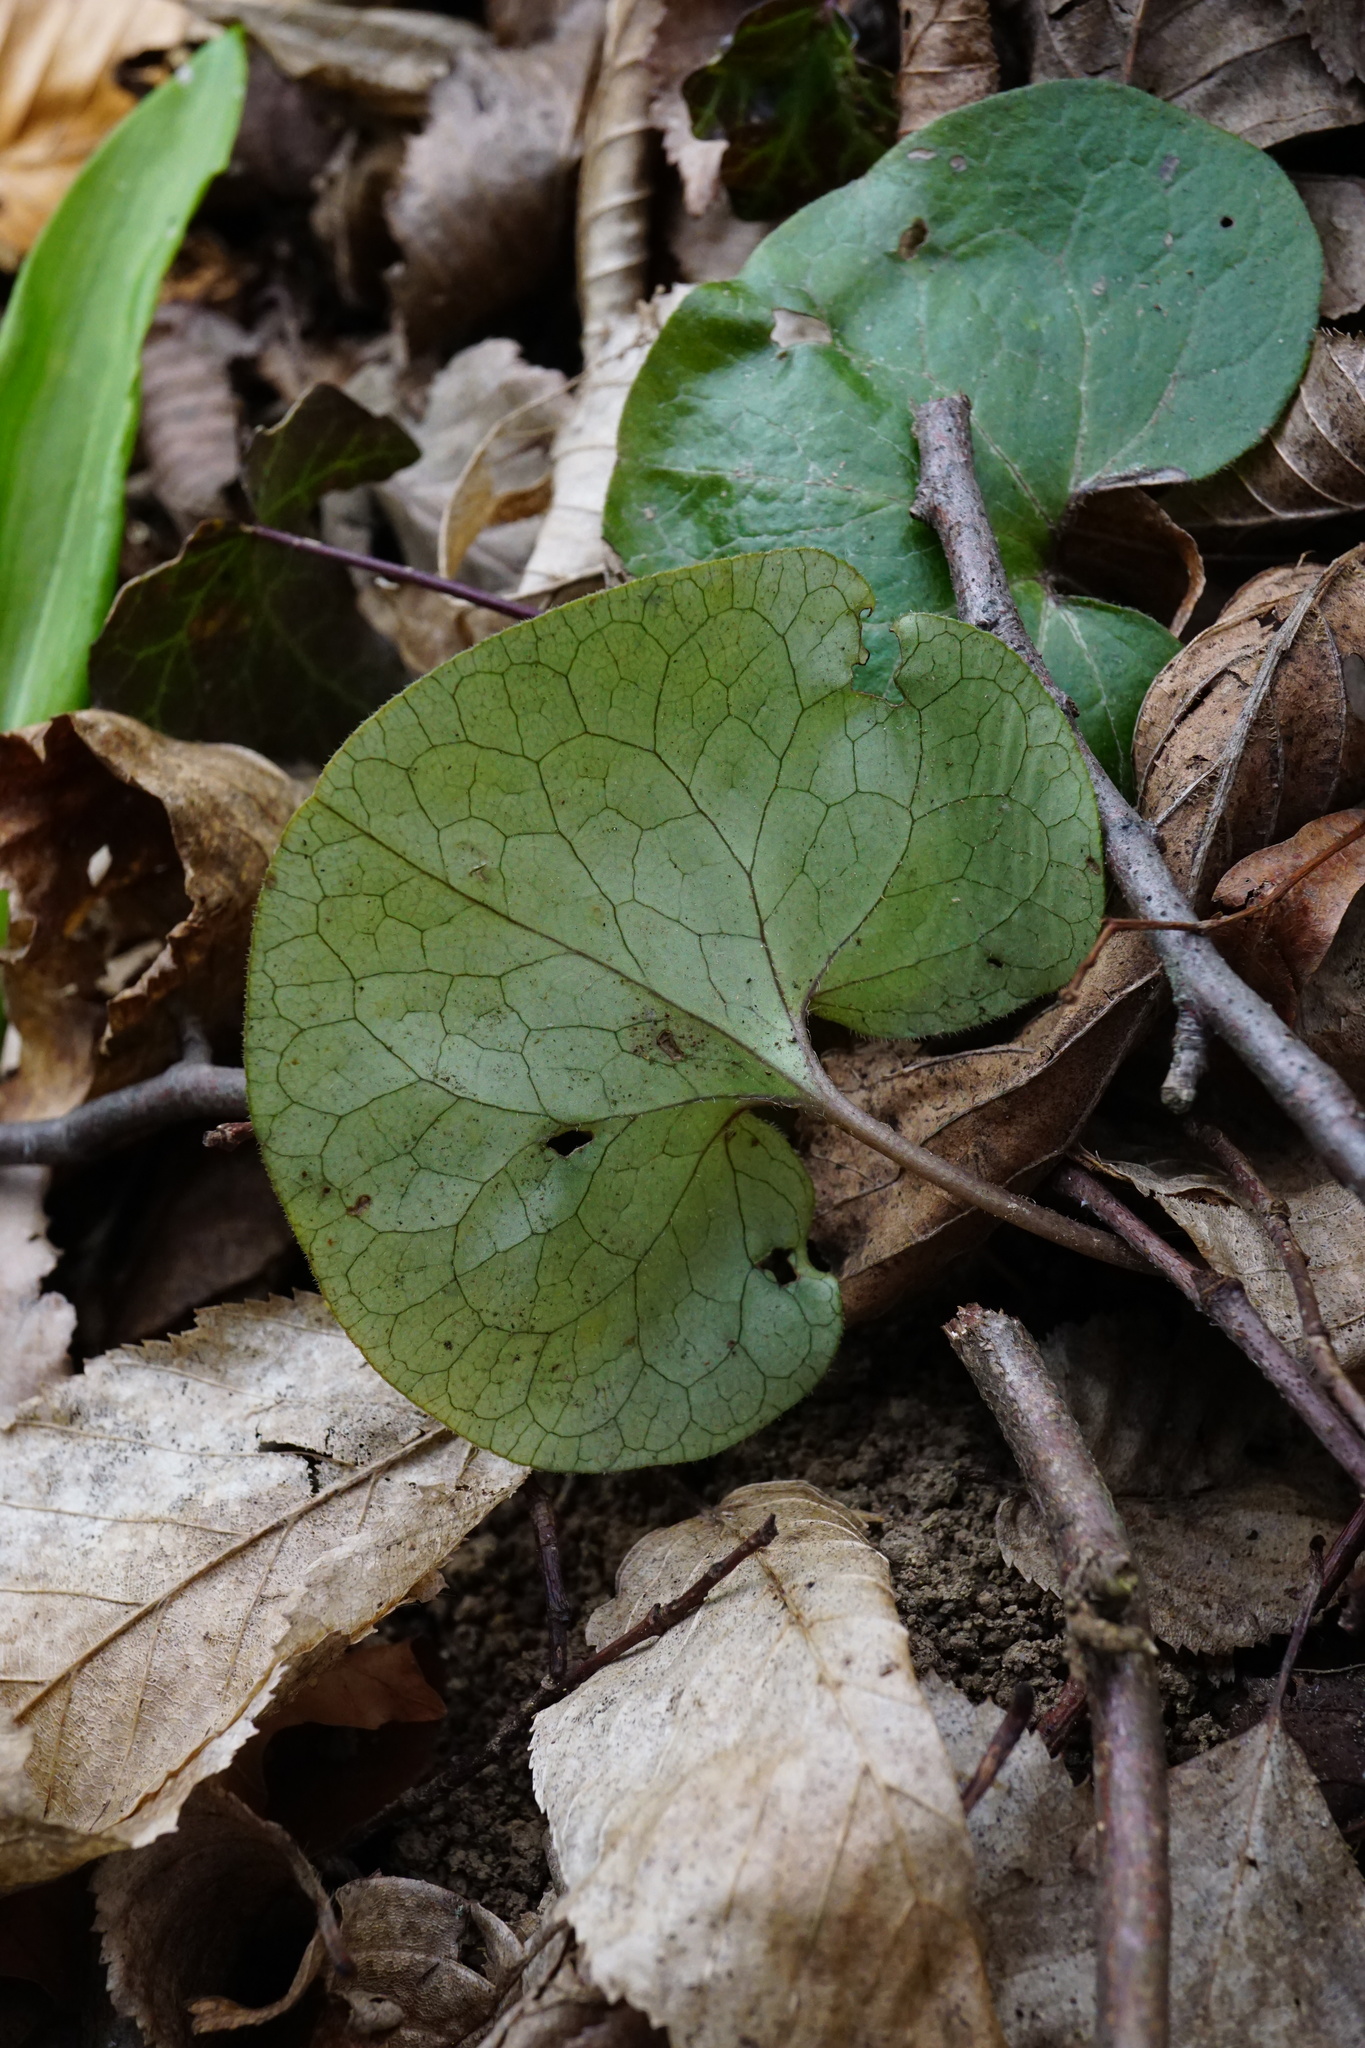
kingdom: Plantae
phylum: Tracheophyta
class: Magnoliopsida
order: Piperales
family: Aristolochiaceae
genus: Asarum
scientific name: Asarum europaeum
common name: Asarabacca
